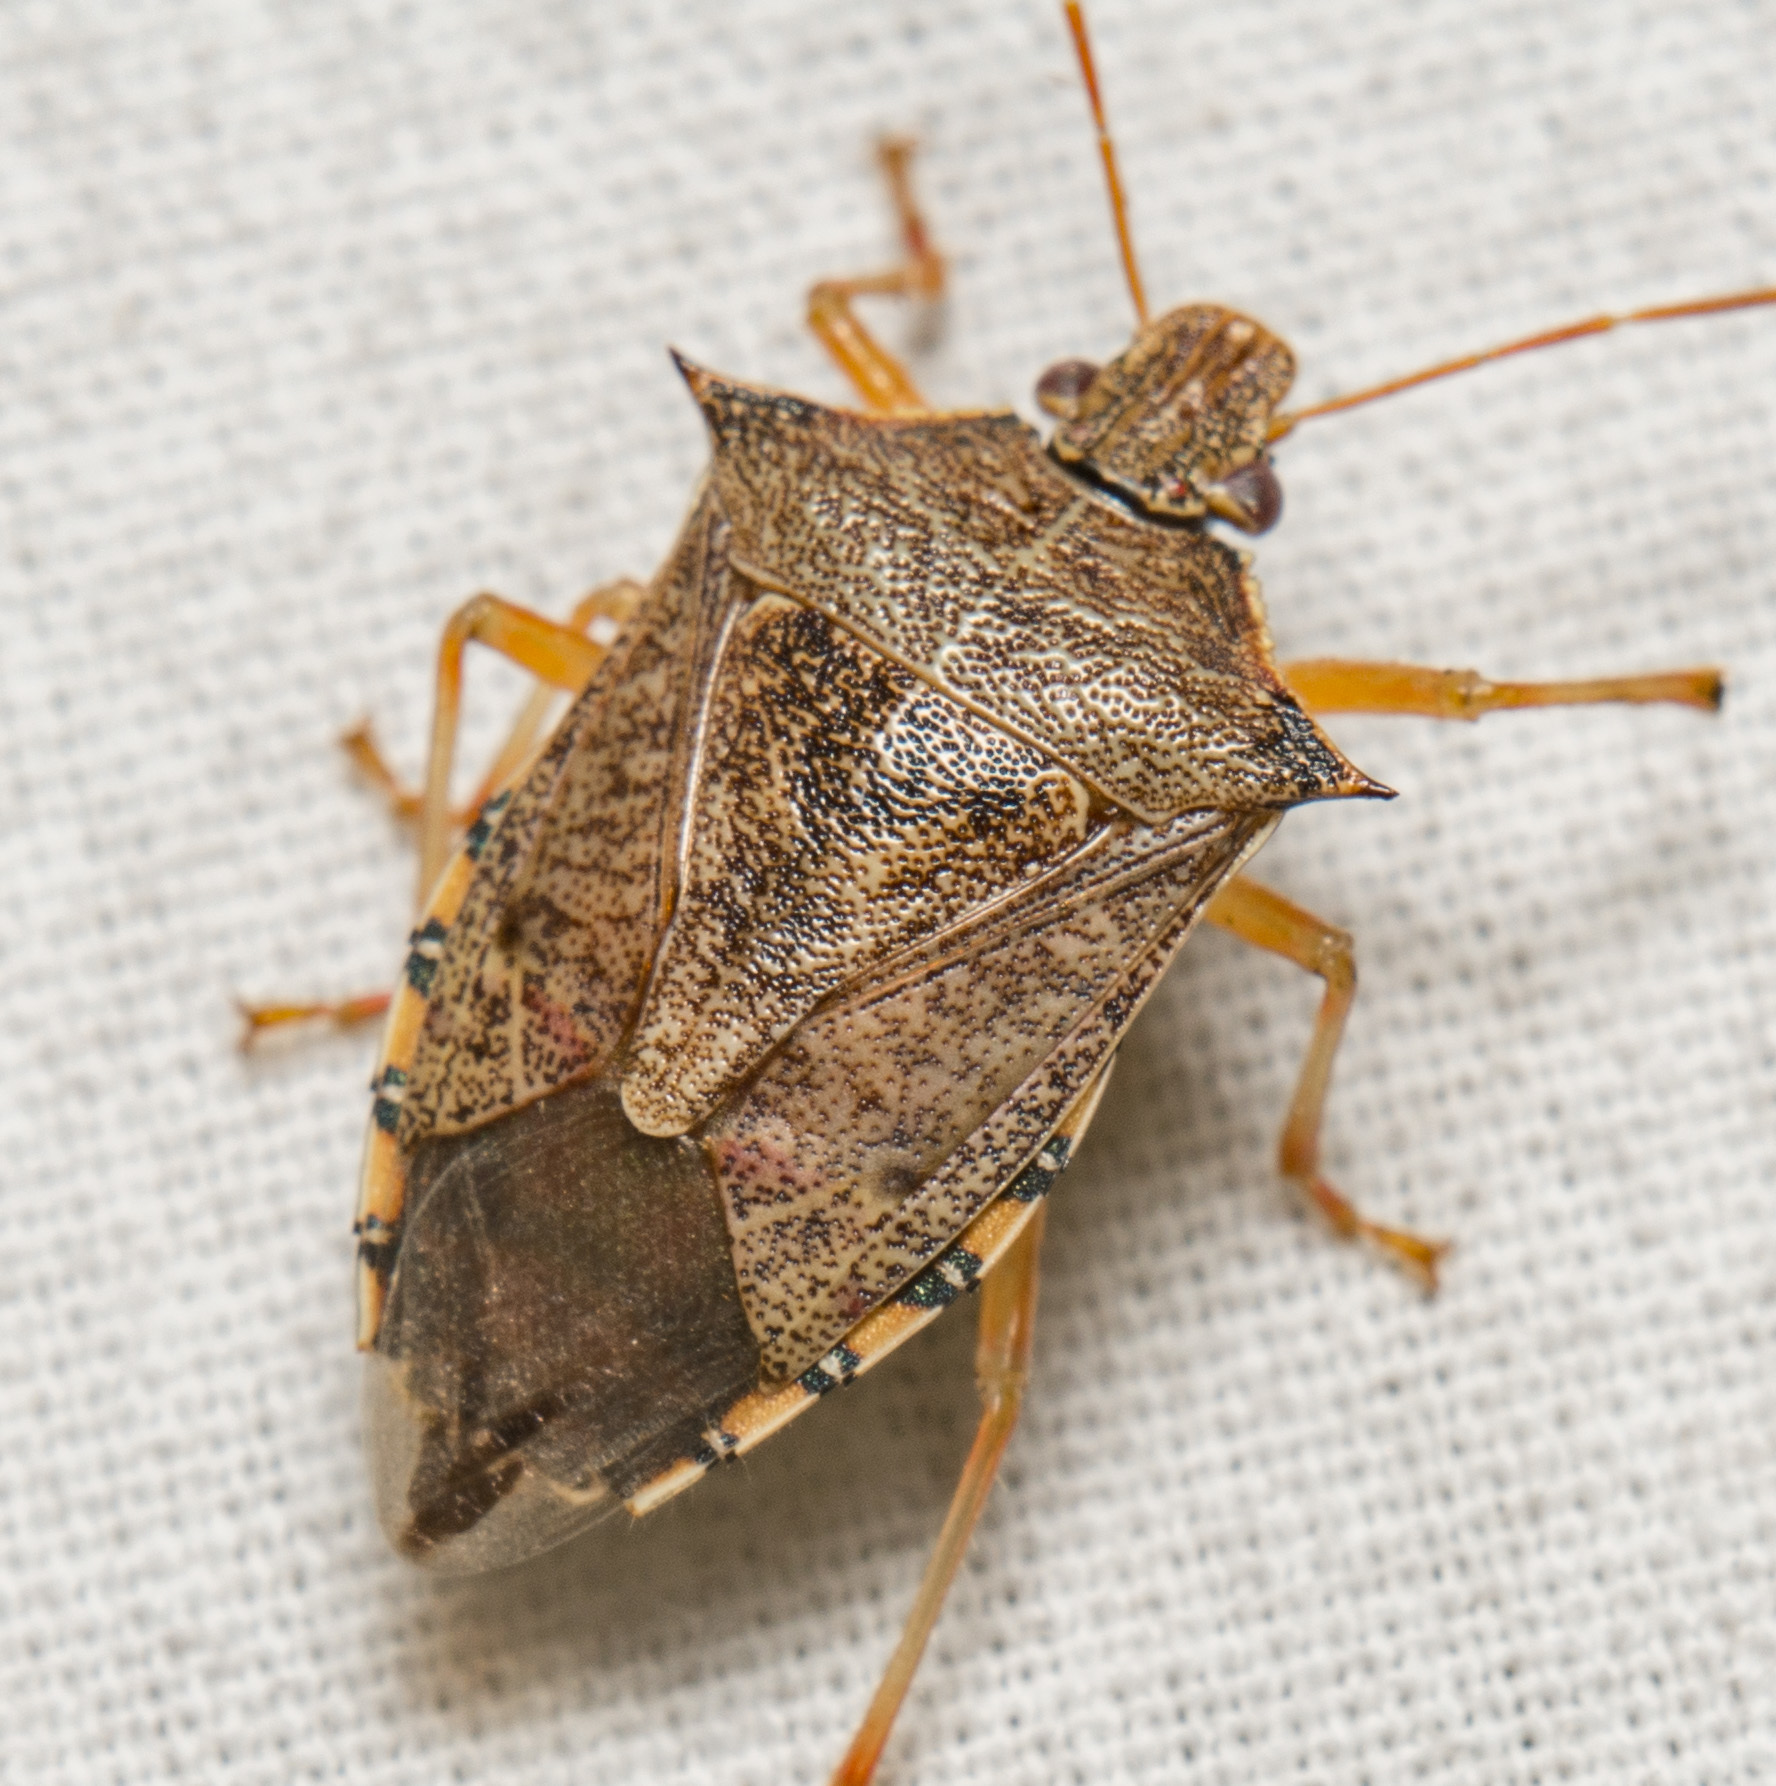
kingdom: Animalia
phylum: Arthropoda
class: Insecta
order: Hemiptera
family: Pentatomidae
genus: Podisus
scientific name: Podisus maculiventris
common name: Spined soldier bug
